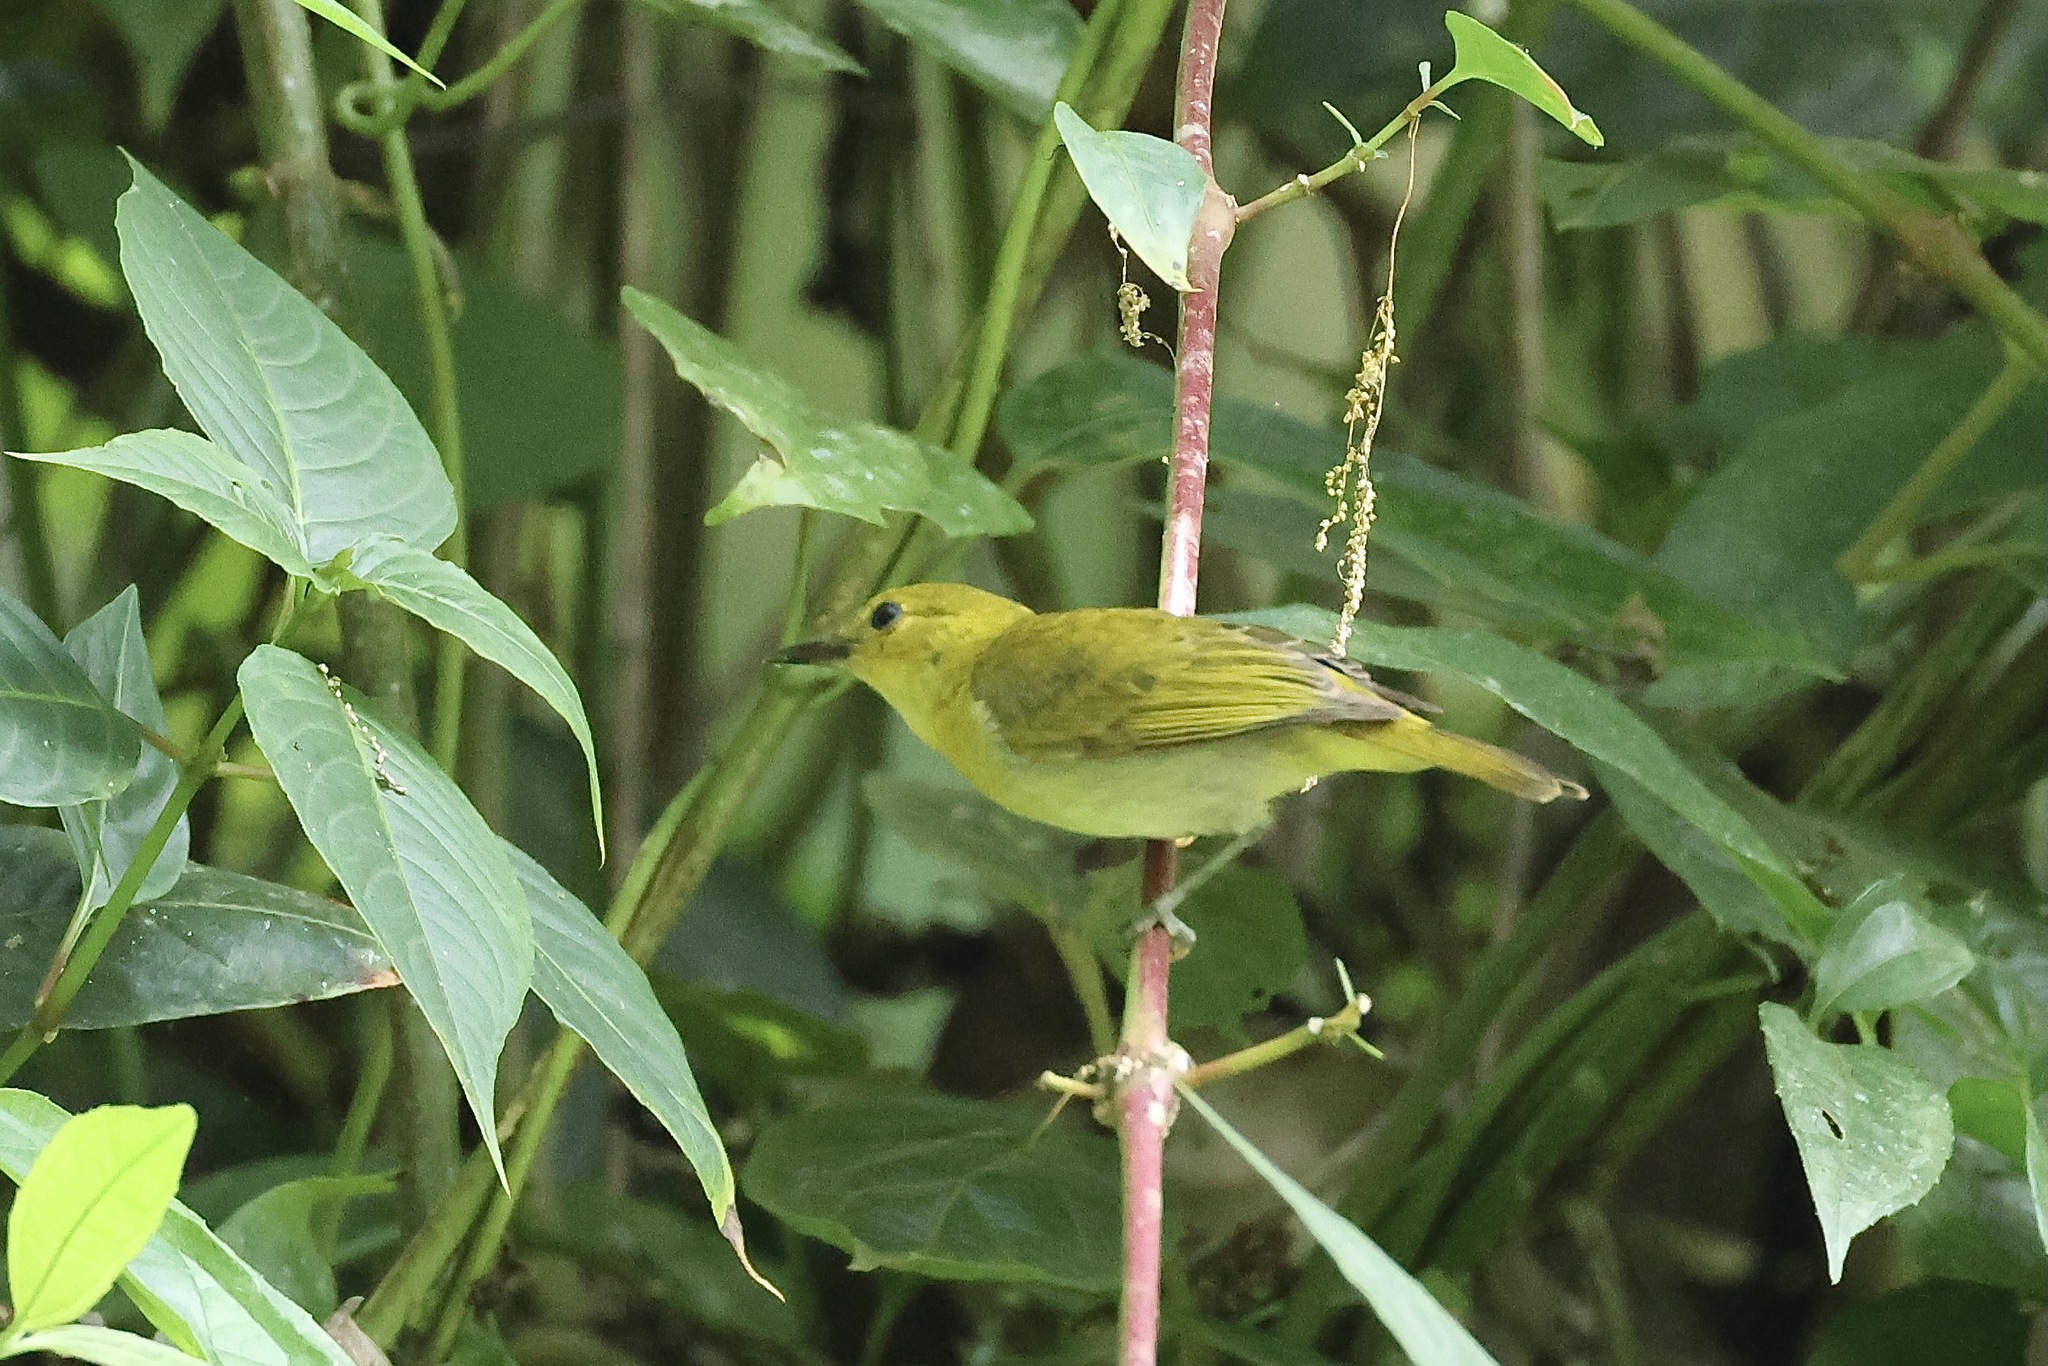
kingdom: Animalia
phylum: Chordata
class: Aves
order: Passeriformes
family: Thraupidae
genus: Chrysothlypis
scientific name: Chrysothlypis chrysomelas
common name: Black-and-yellow tanager
